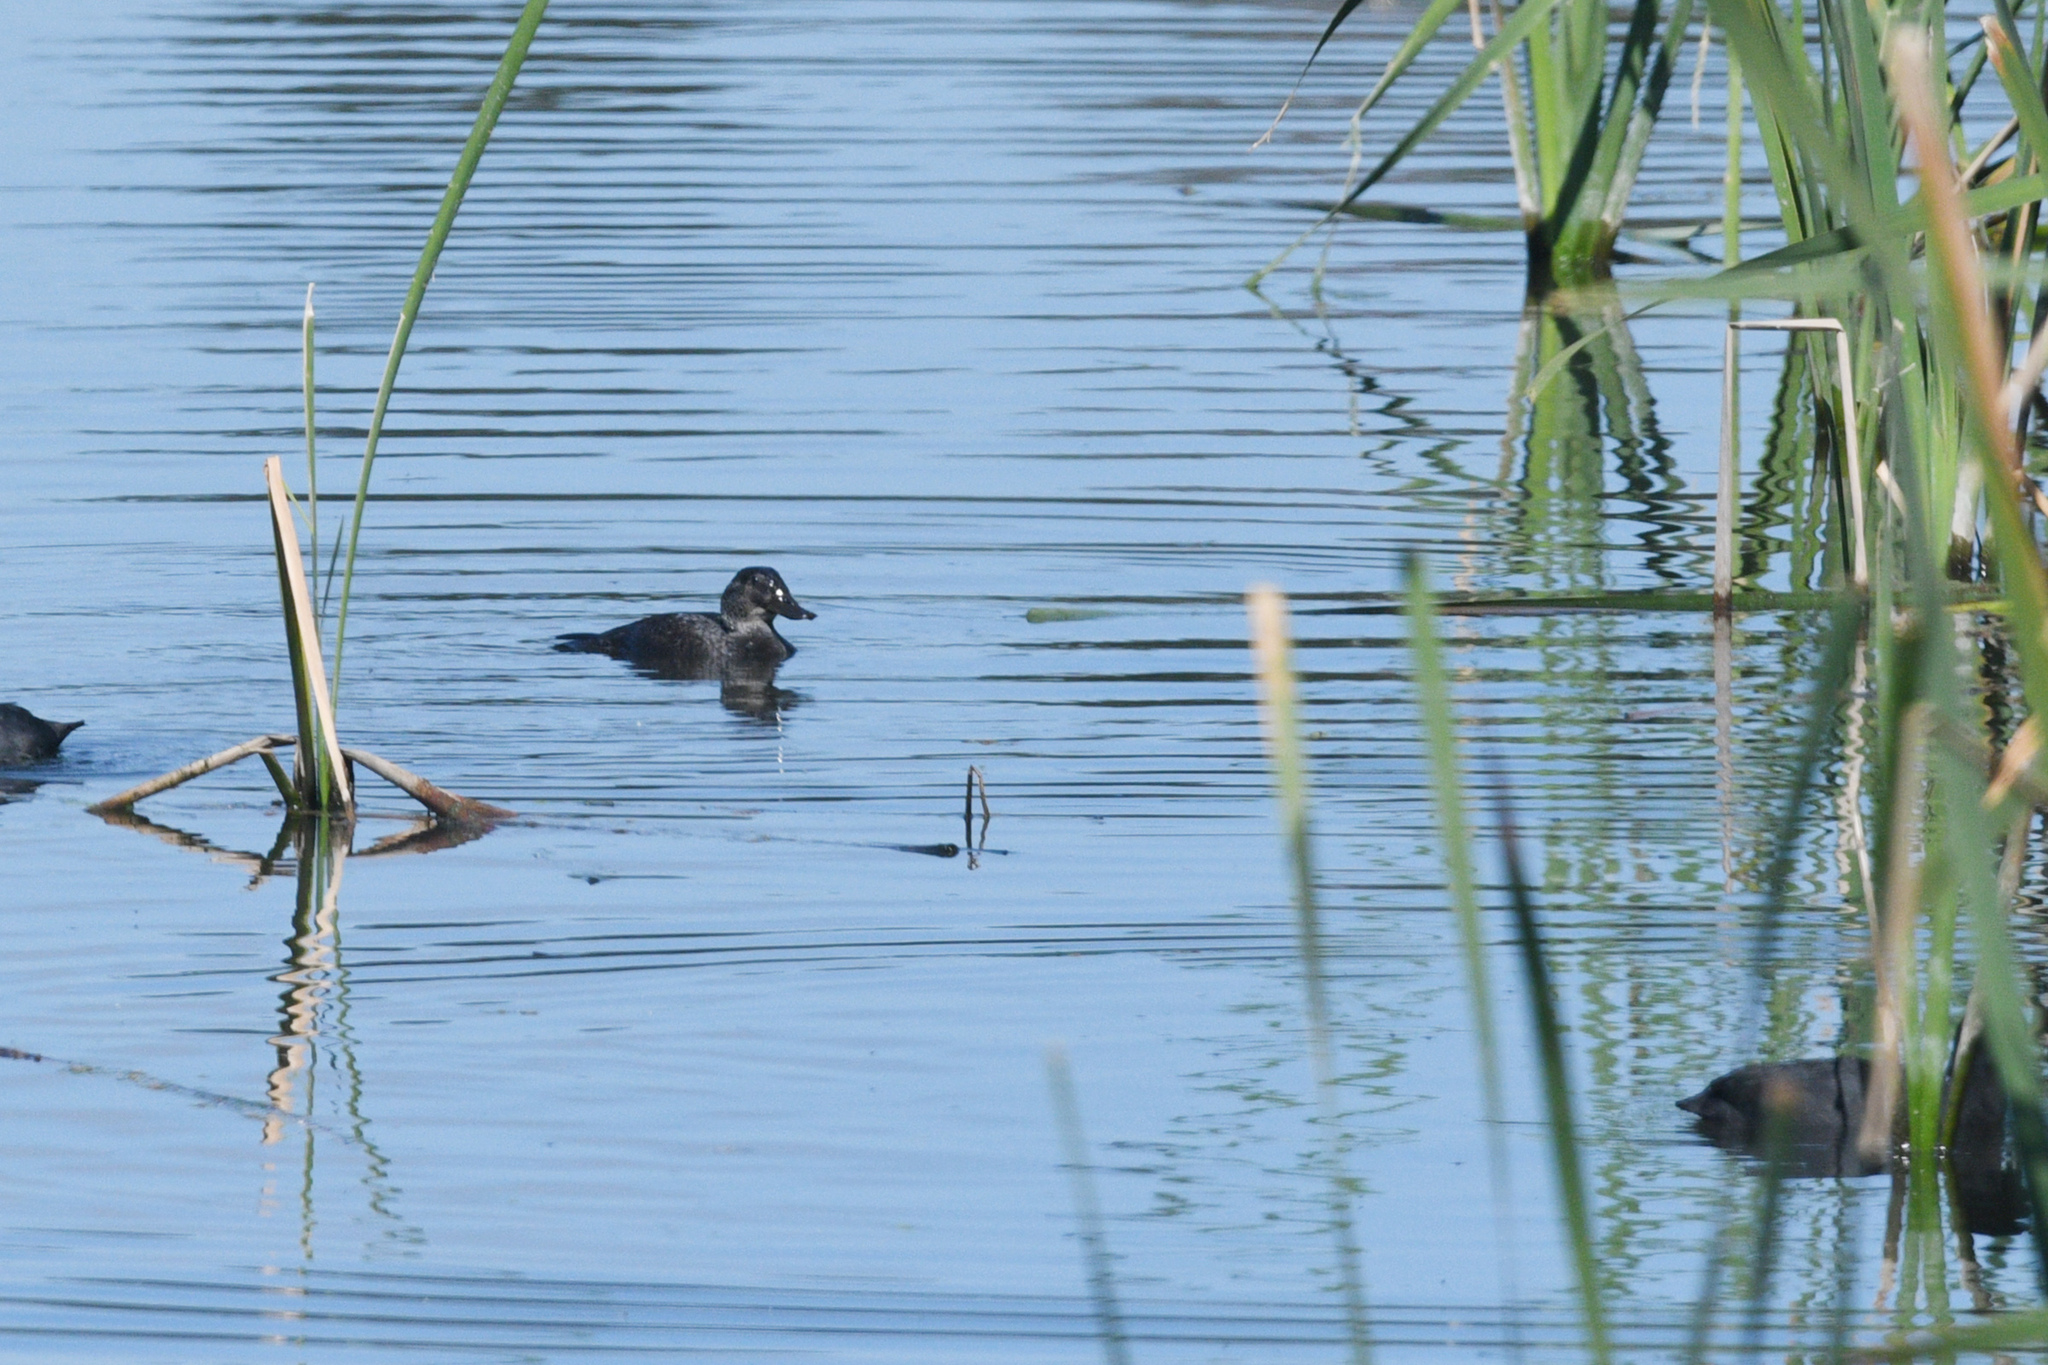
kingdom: Animalia
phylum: Chordata
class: Aves
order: Anseriformes
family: Anatidae
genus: Oxyura
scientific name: Oxyura australis
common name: Blue-billed duck
